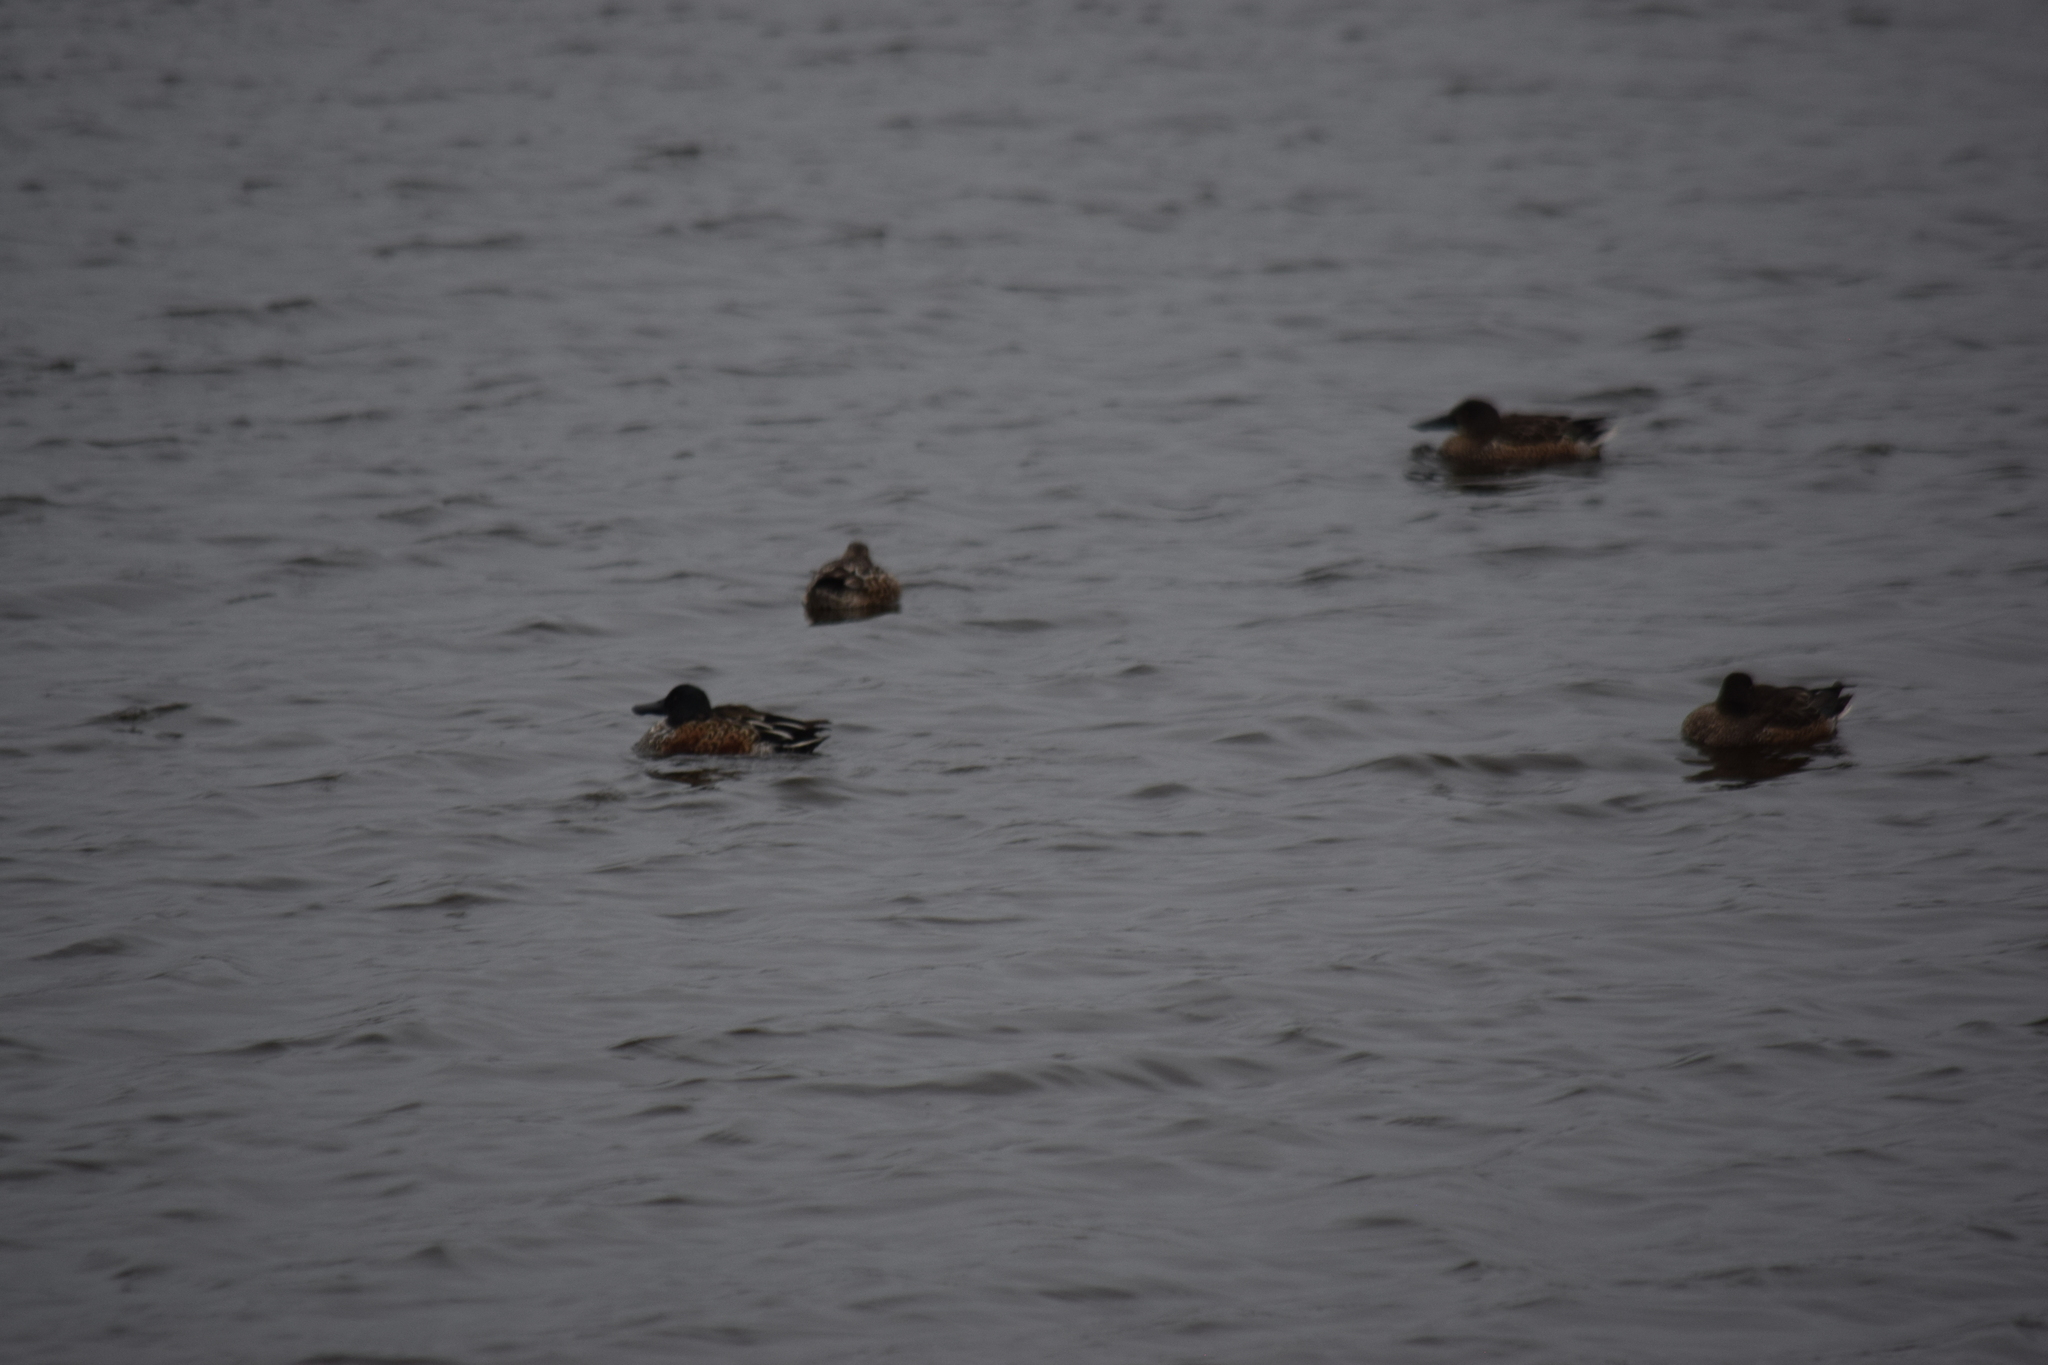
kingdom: Animalia
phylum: Chordata
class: Aves
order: Anseriformes
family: Anatidae
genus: Spatula
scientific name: Spatula clypeata
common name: Northern shoveler
